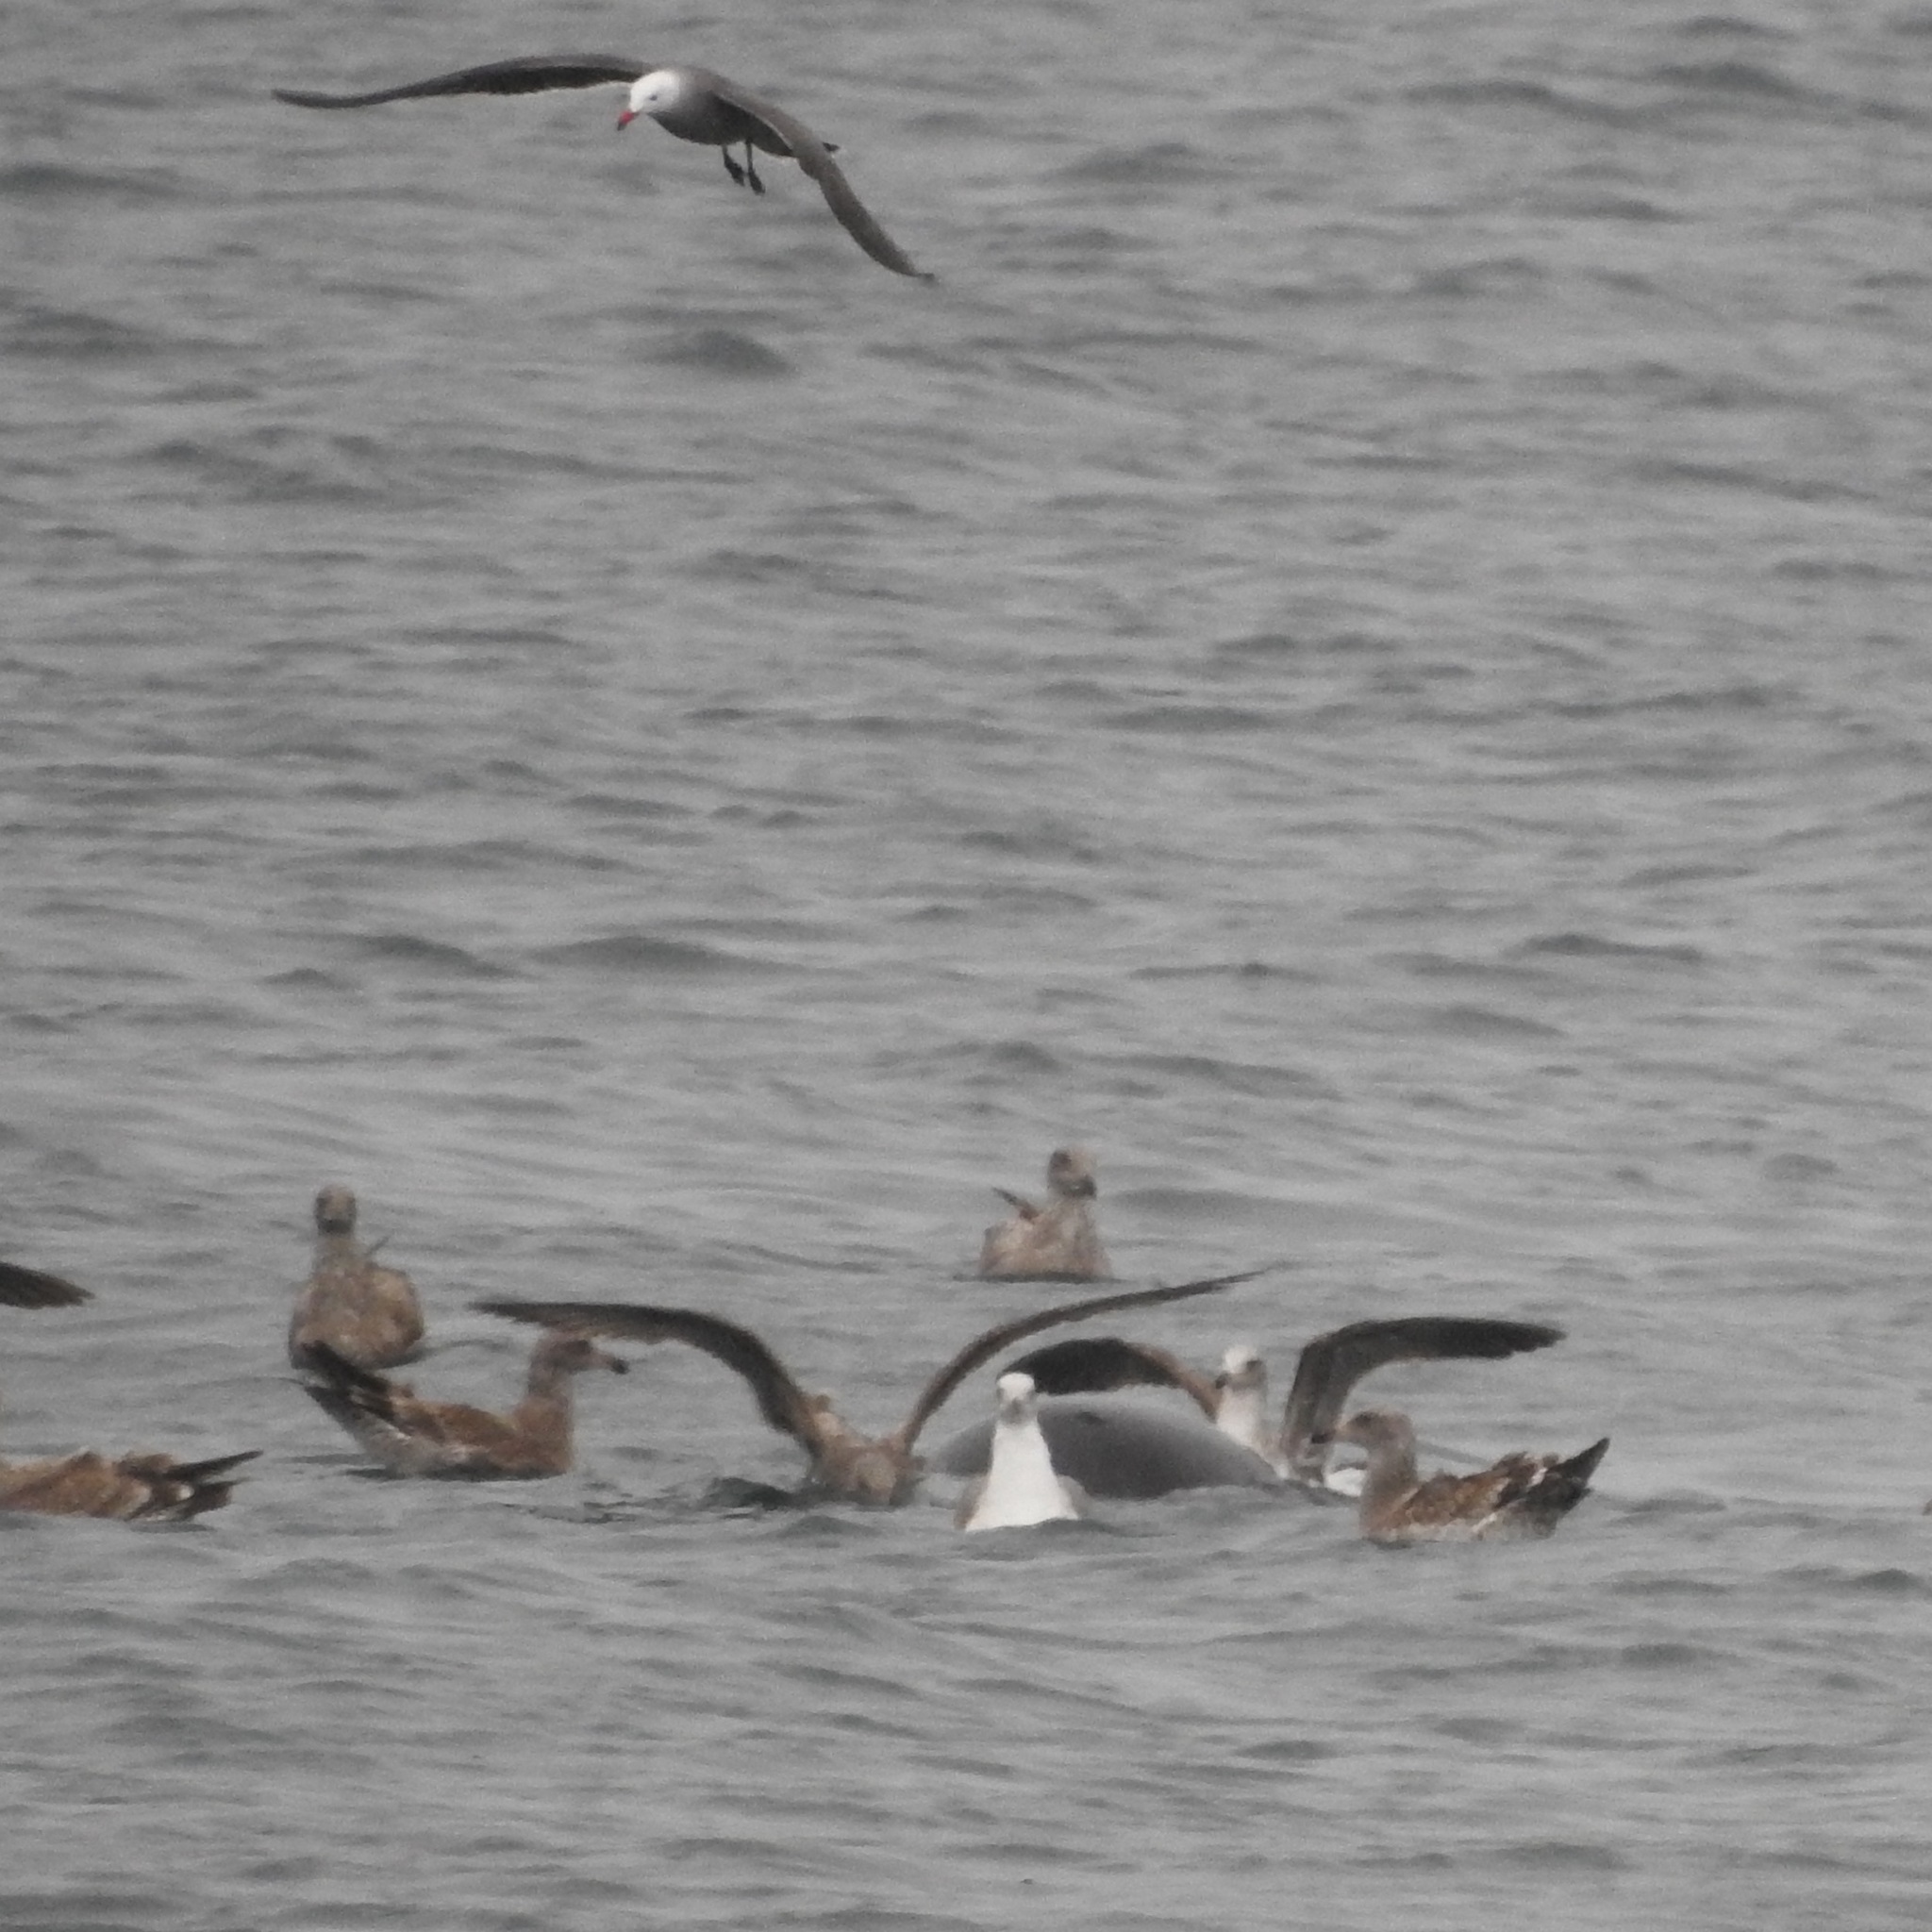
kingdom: Animalia
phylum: Chordata
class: Aves
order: Charadriiformes
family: Laridae
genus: Larus
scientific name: Larus heermanni
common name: Heermann's gull
